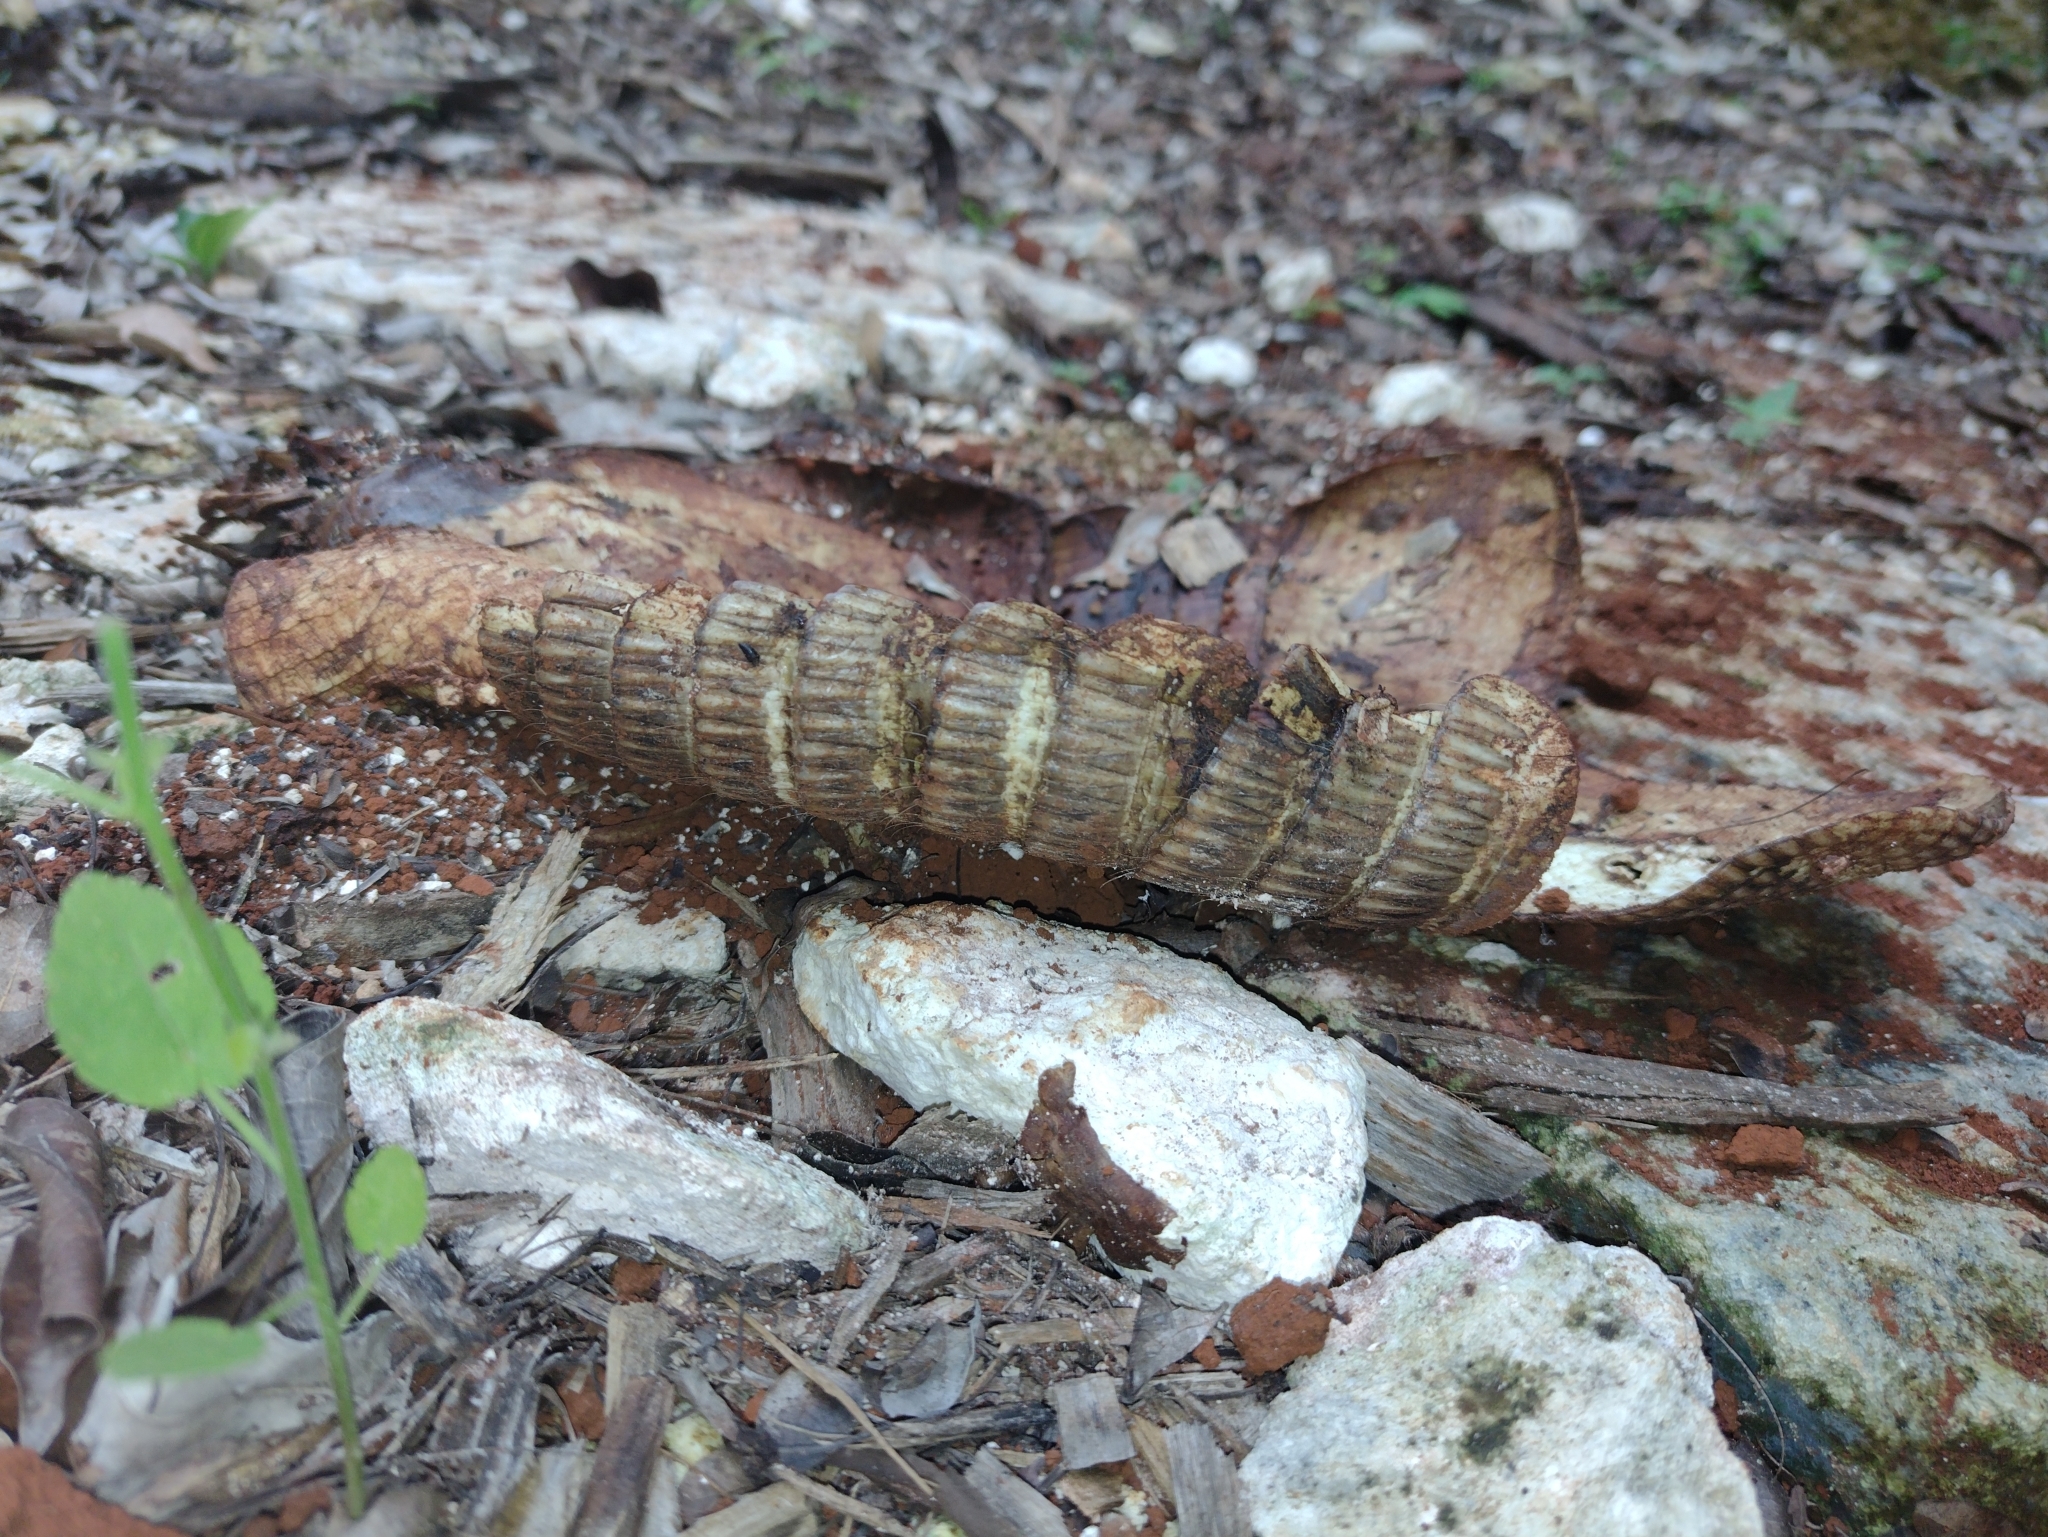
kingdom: Animalia
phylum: Chordata
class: Mammalia
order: Cingulata
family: Dasypodidae
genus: Dasypus
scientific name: Dasypus novemcinctus
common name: Nine-banded armadillo
